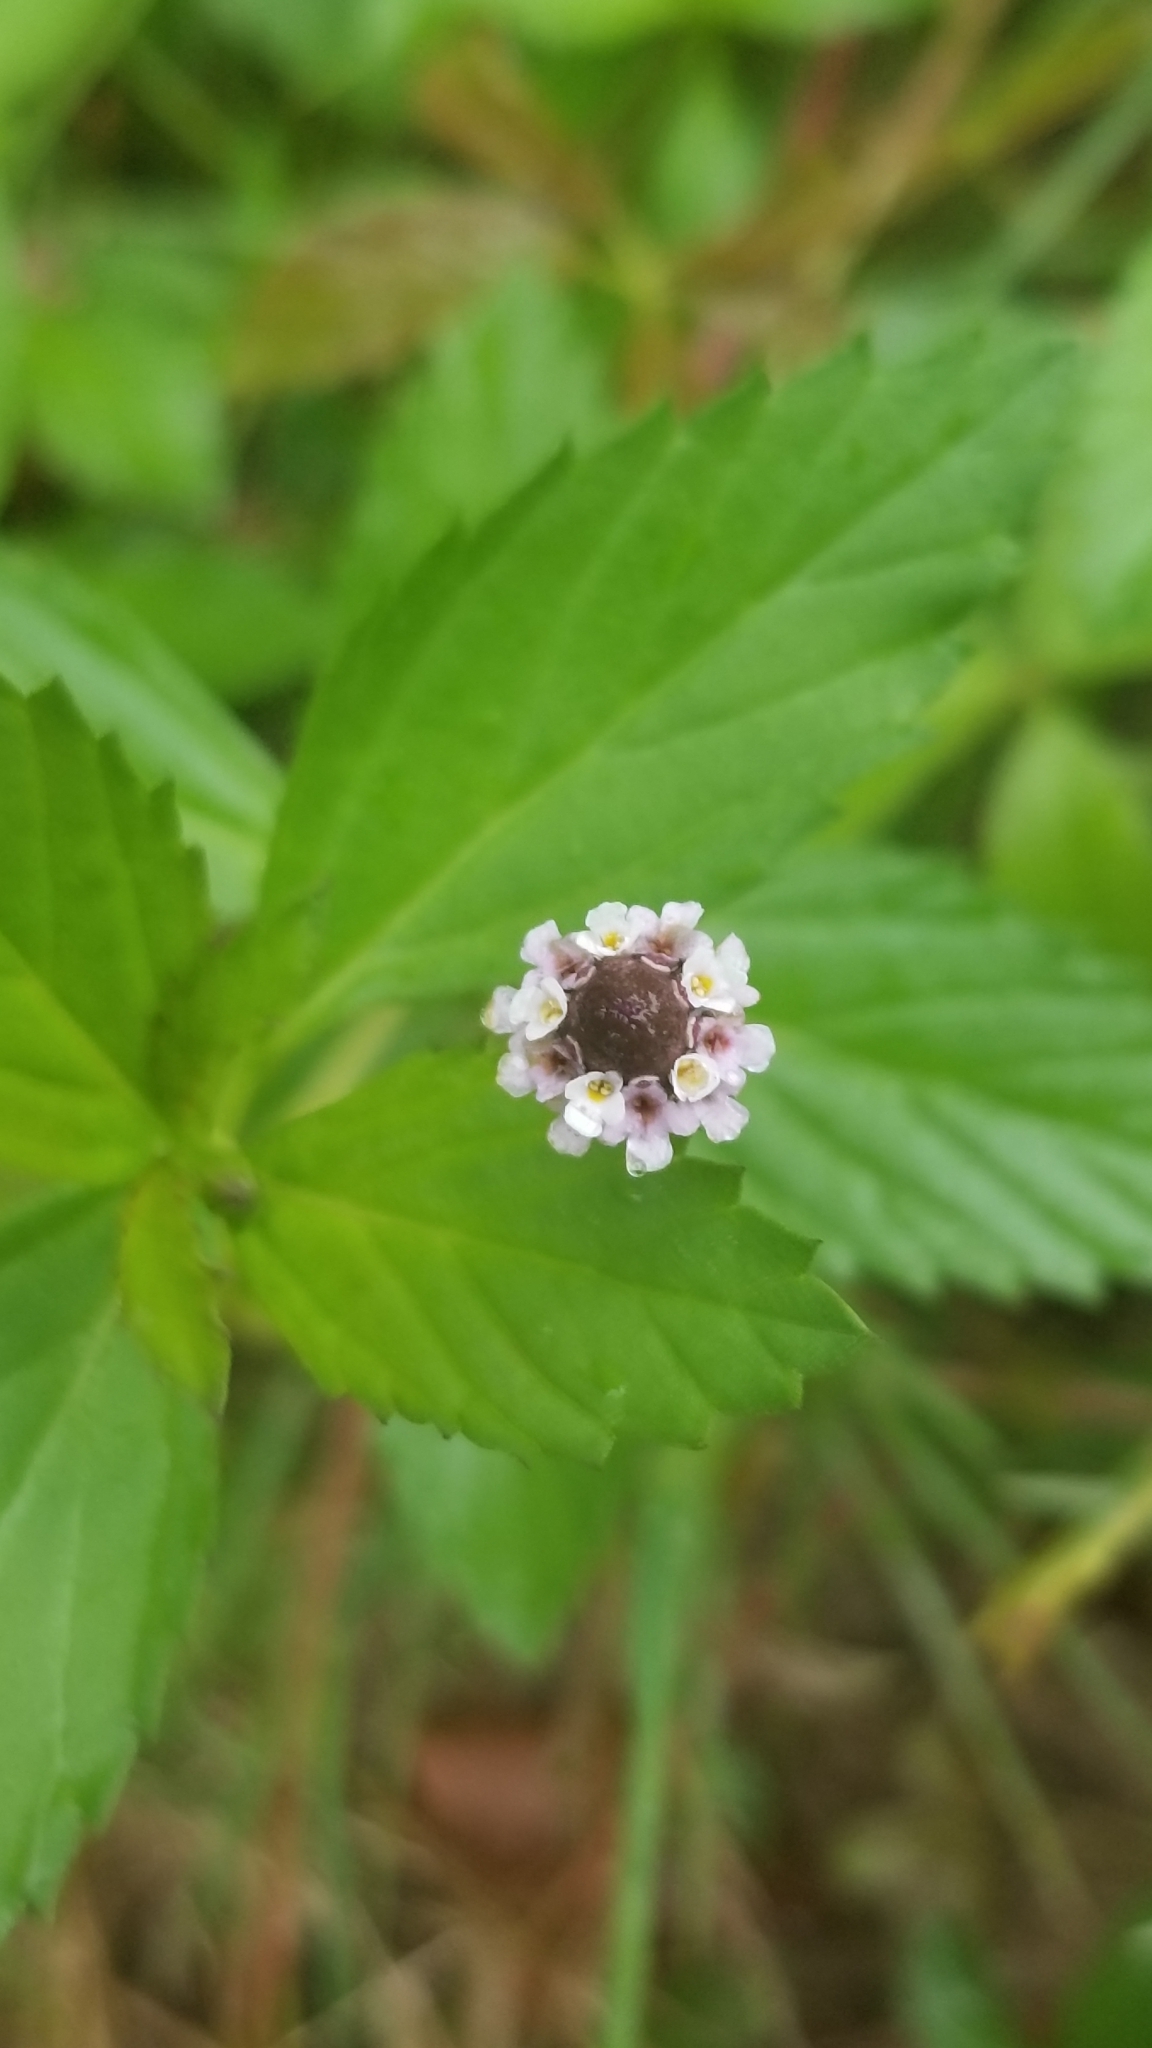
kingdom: Plantae
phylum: Tracheophyta
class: Magnoliopsida
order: Lamiales
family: Verbenaceae
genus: Phyla
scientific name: Phyla lanceolata
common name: Northern fogfruit
